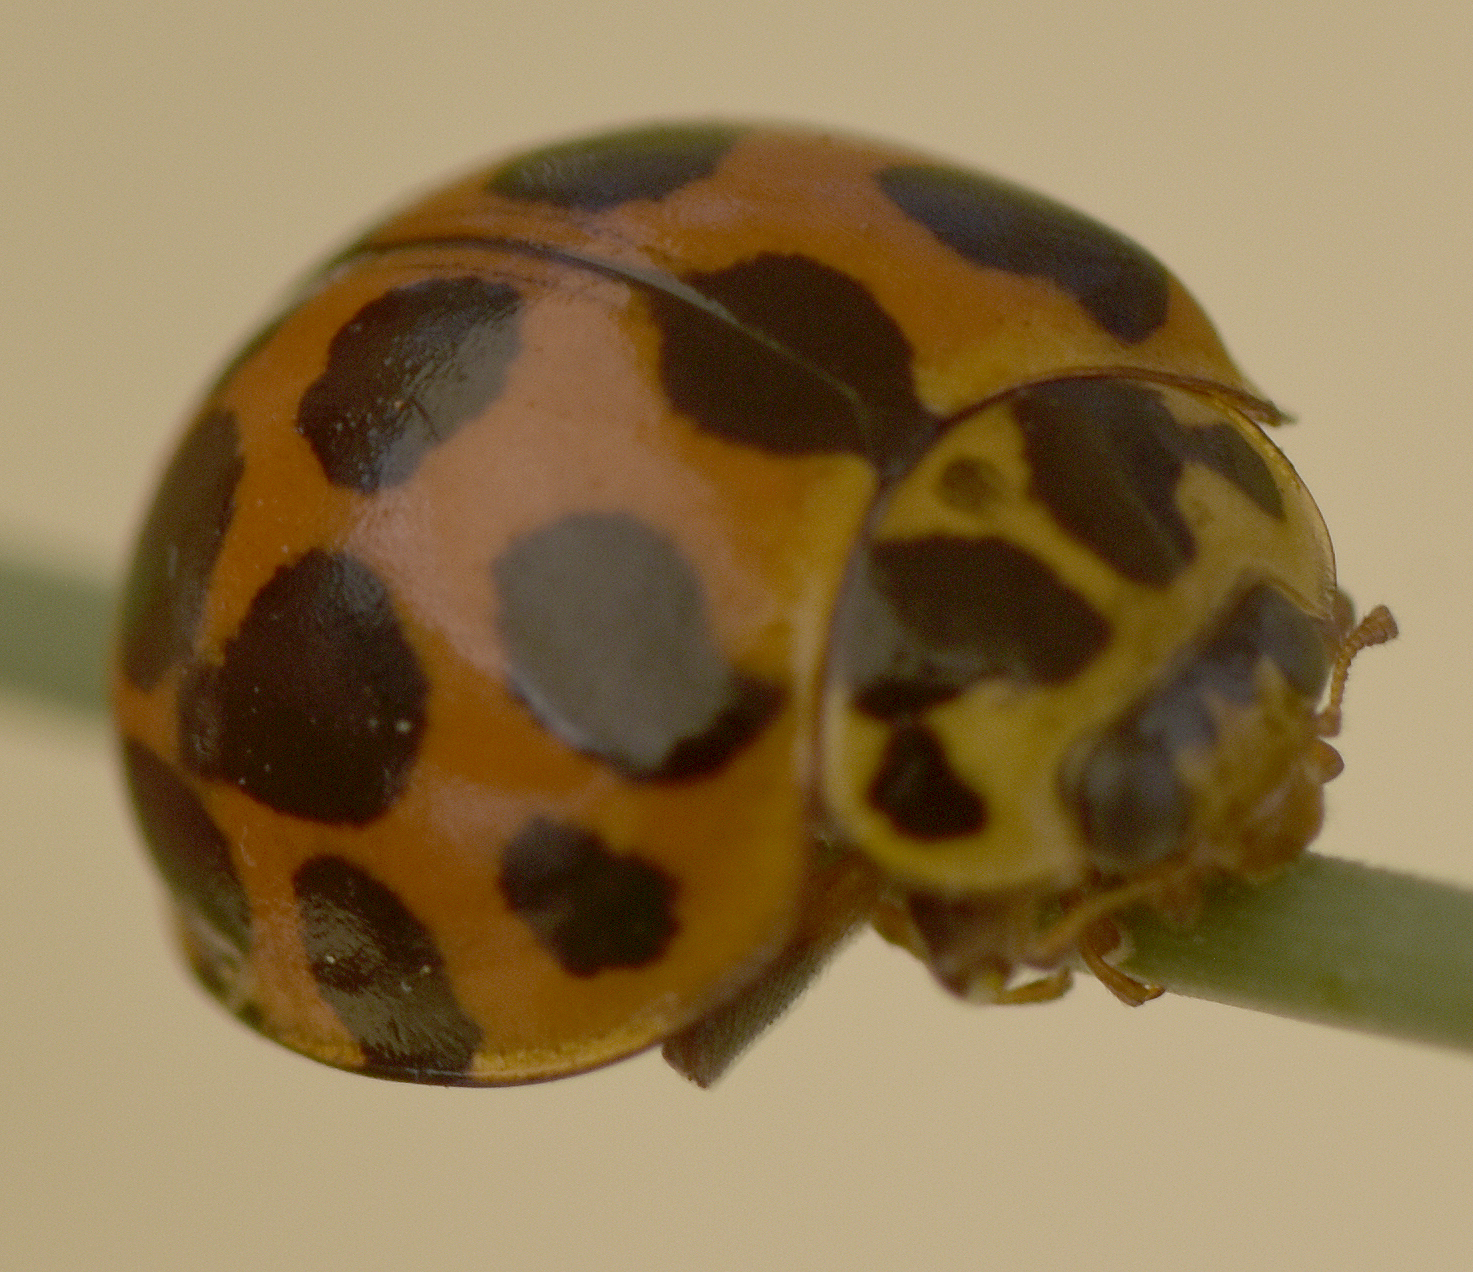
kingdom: Animalia
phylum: Arthropoda
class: Insecta
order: Coleoptera
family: Coccinellidae
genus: Harmonia
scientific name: Harmonia conformis
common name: Common spotted ladybird beetle
